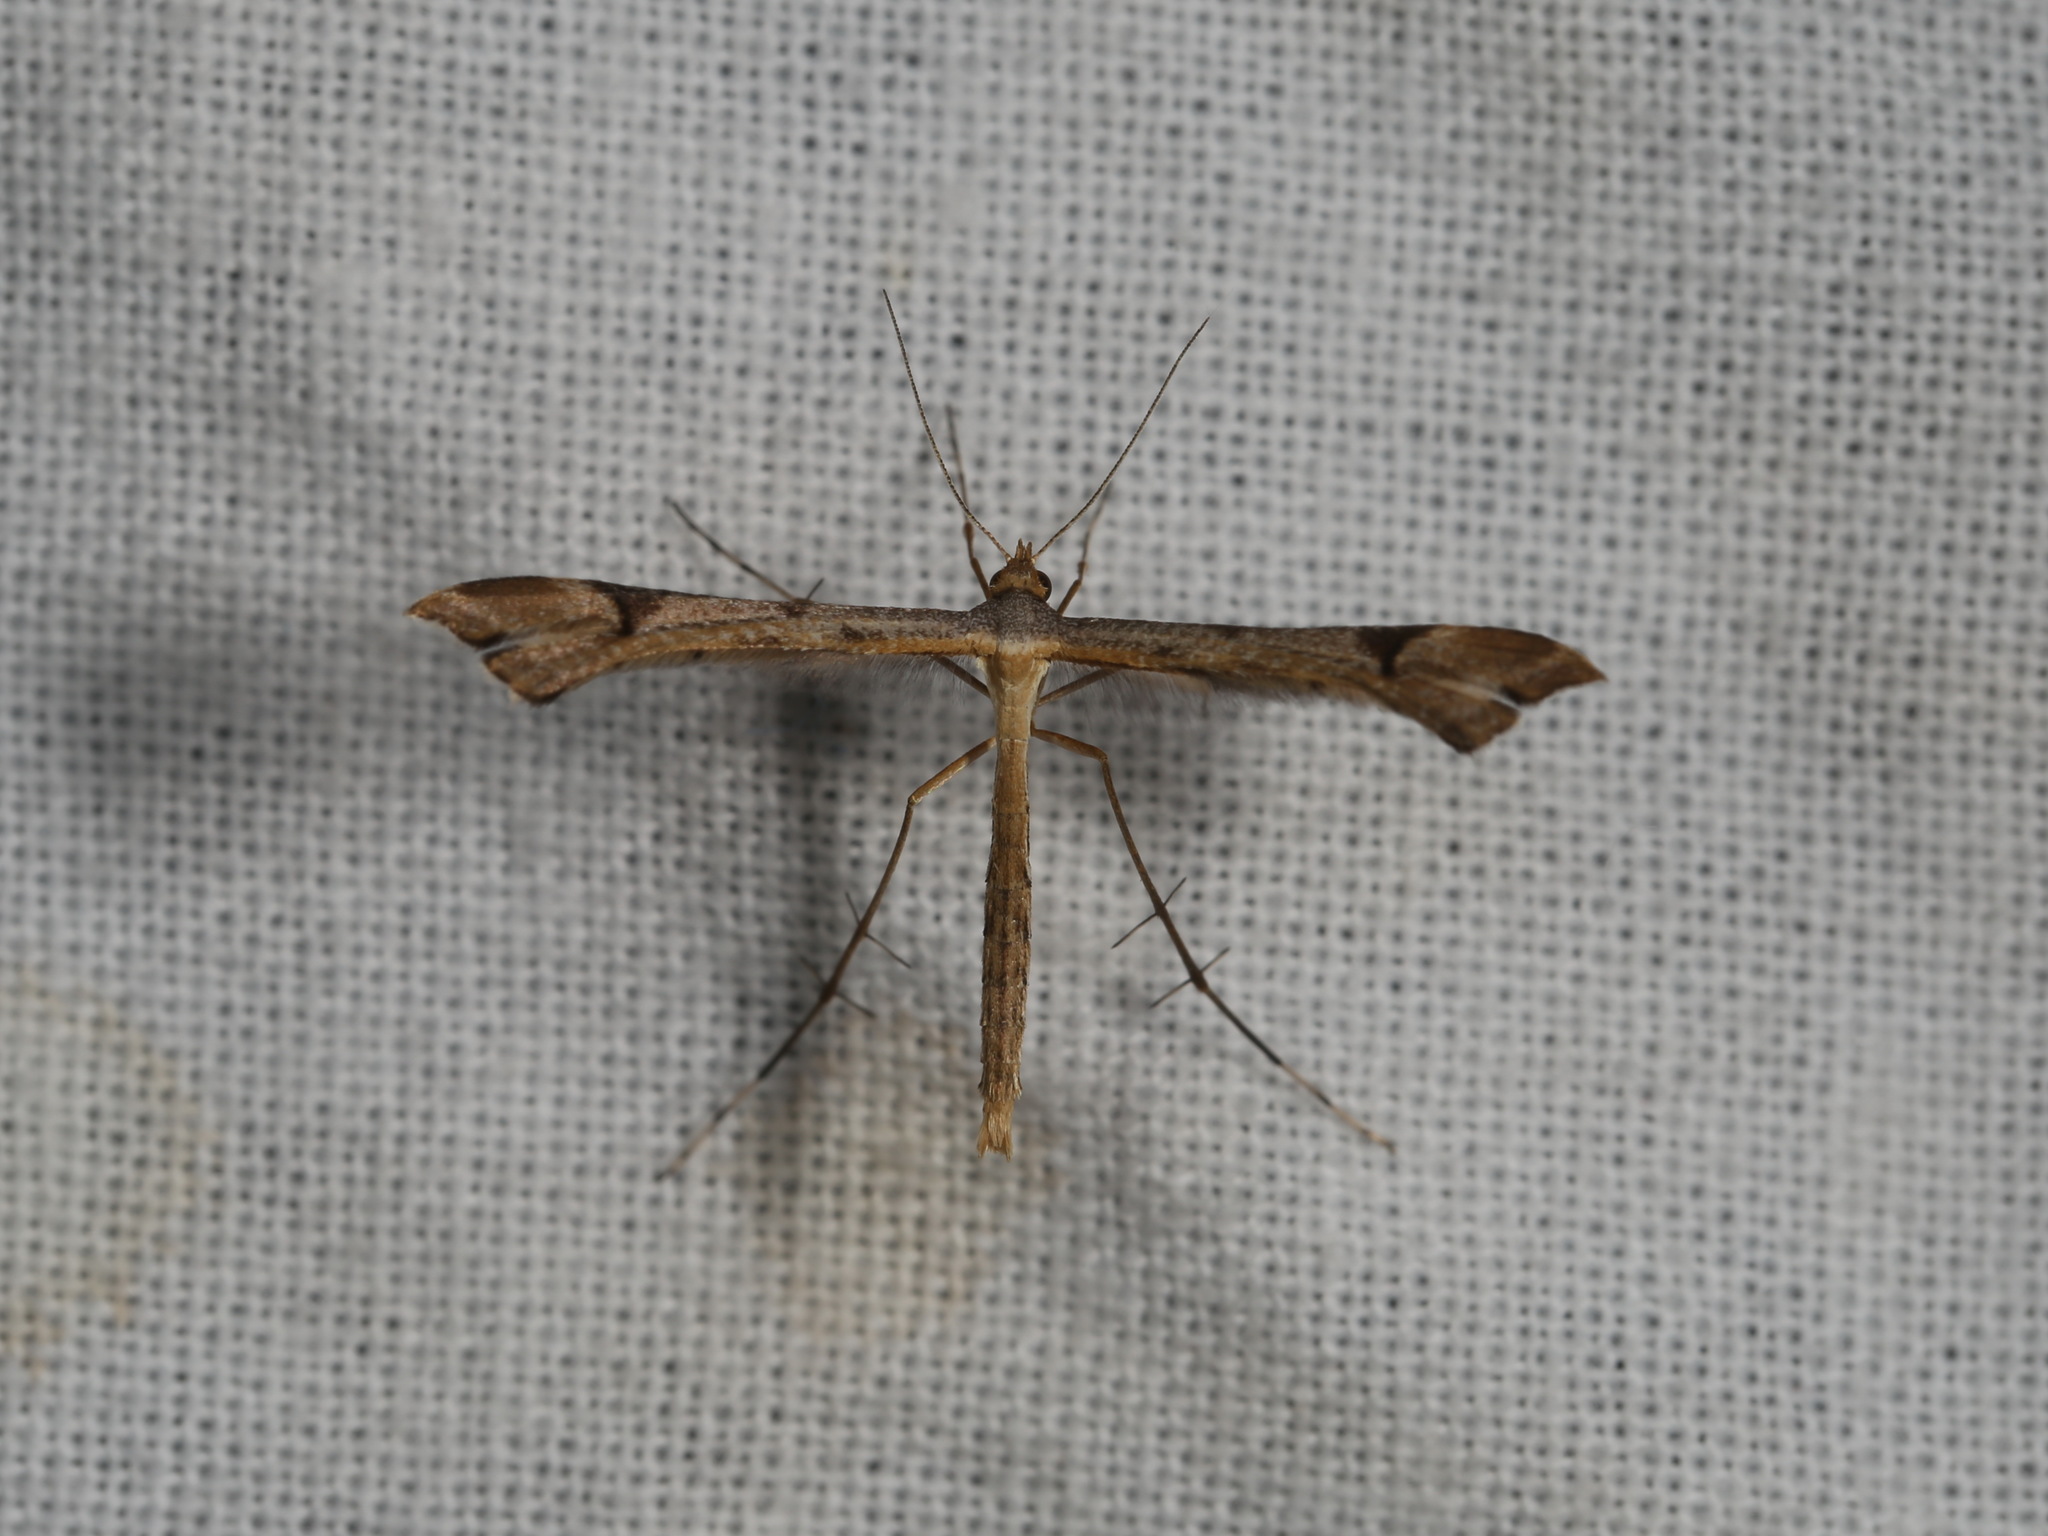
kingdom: Animalia
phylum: Arthropoda
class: Insecta
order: Lepidoptera
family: Pterophoridae
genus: Sinpunctiptilia
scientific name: Sinpunctiptilia emissalis
